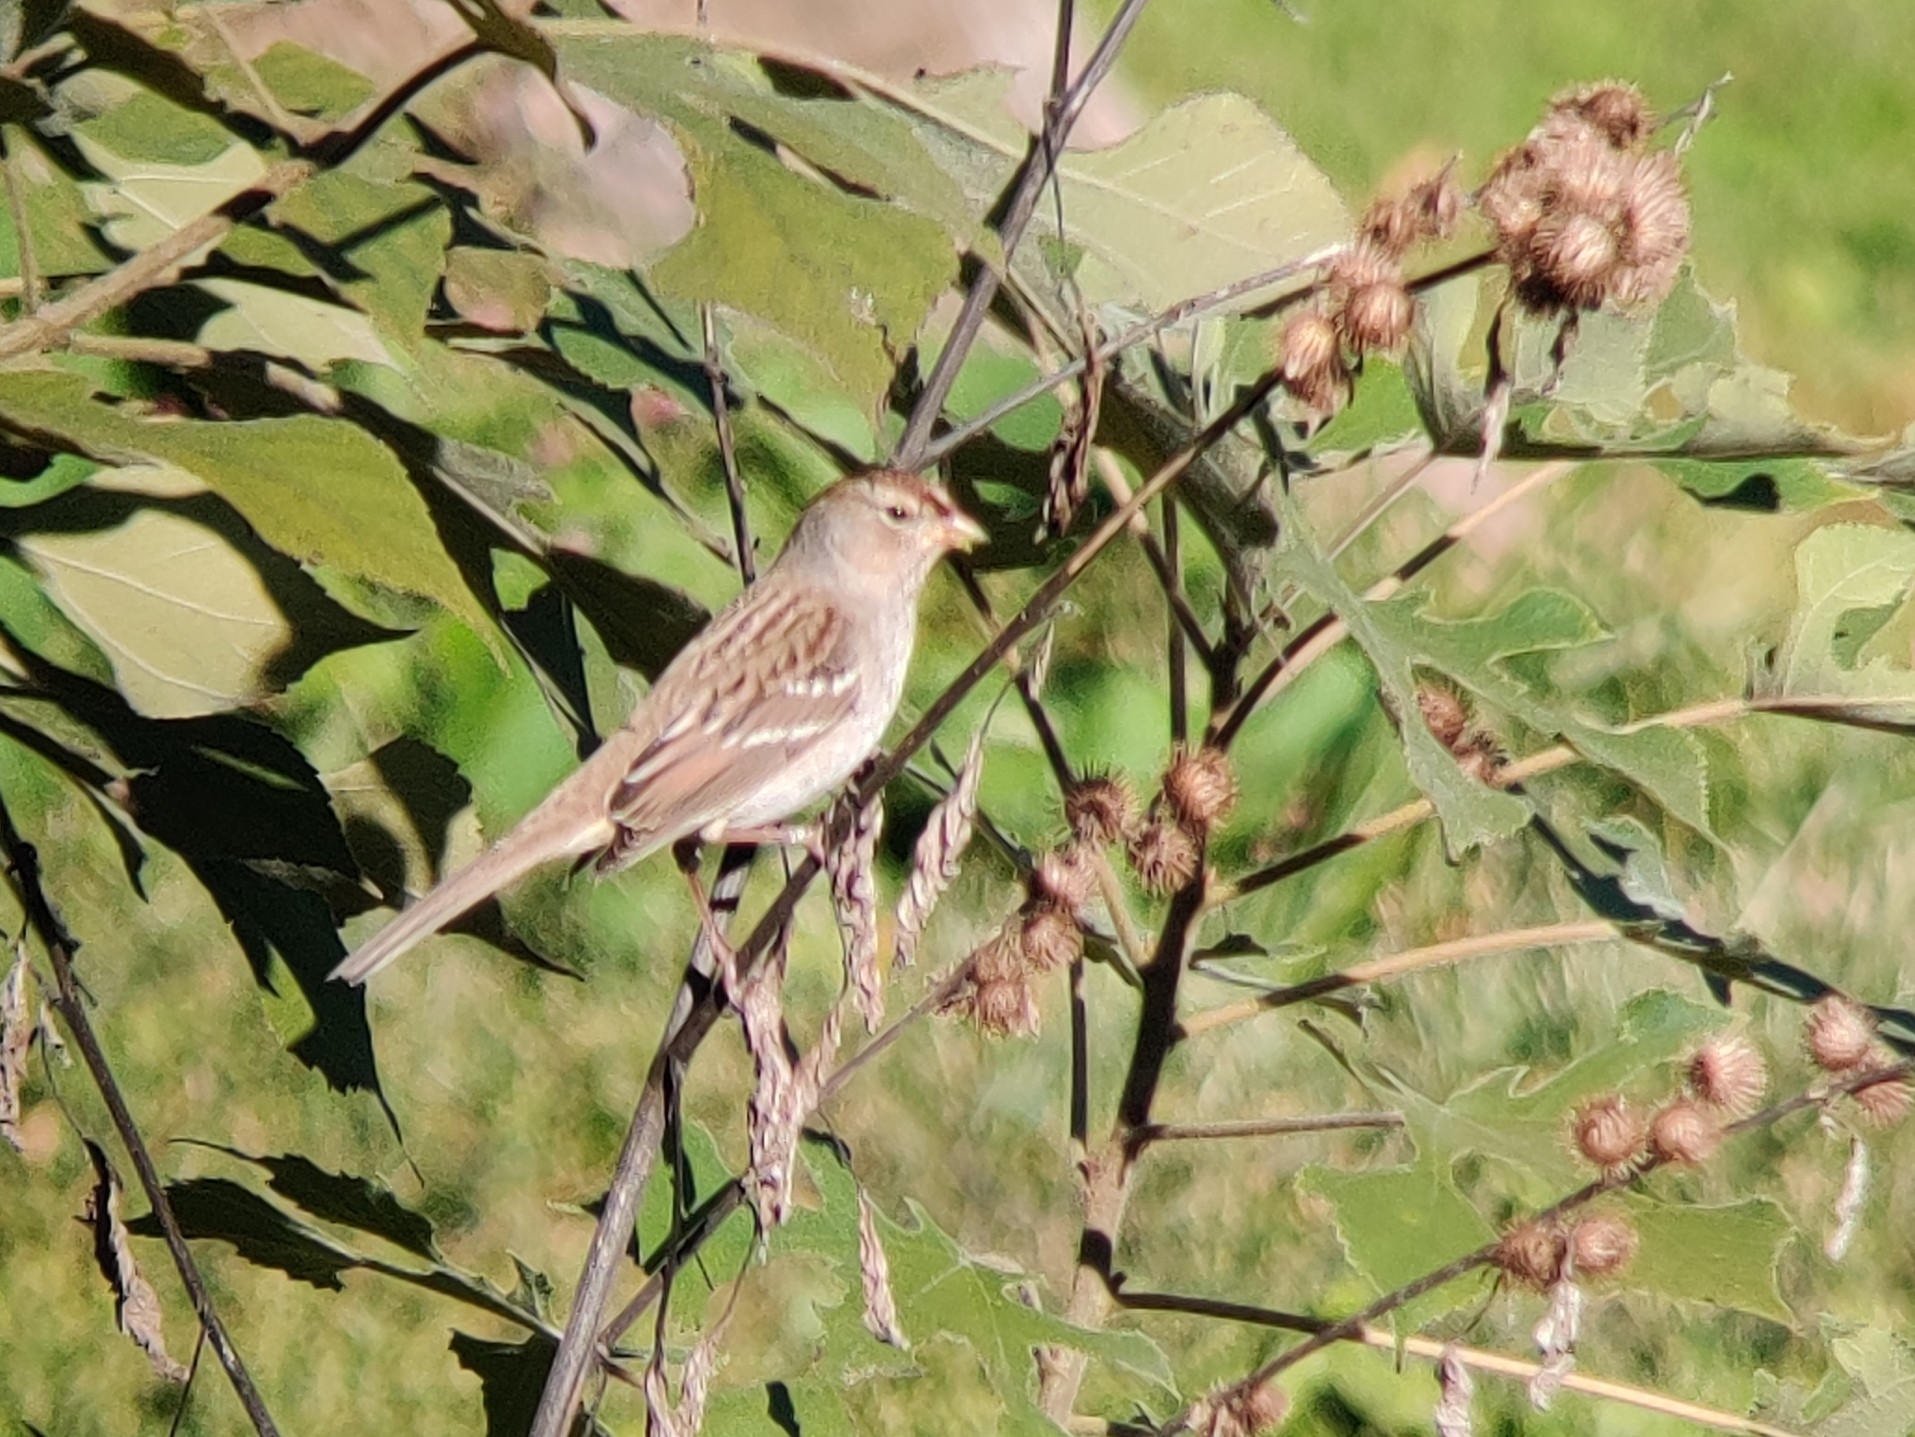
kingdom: Animalia
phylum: Chordata
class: Aves
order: Passeriformes
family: Passerellidae
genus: Zonotrichia
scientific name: Zonotrichia leucophrys
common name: White-crowned sparrow
